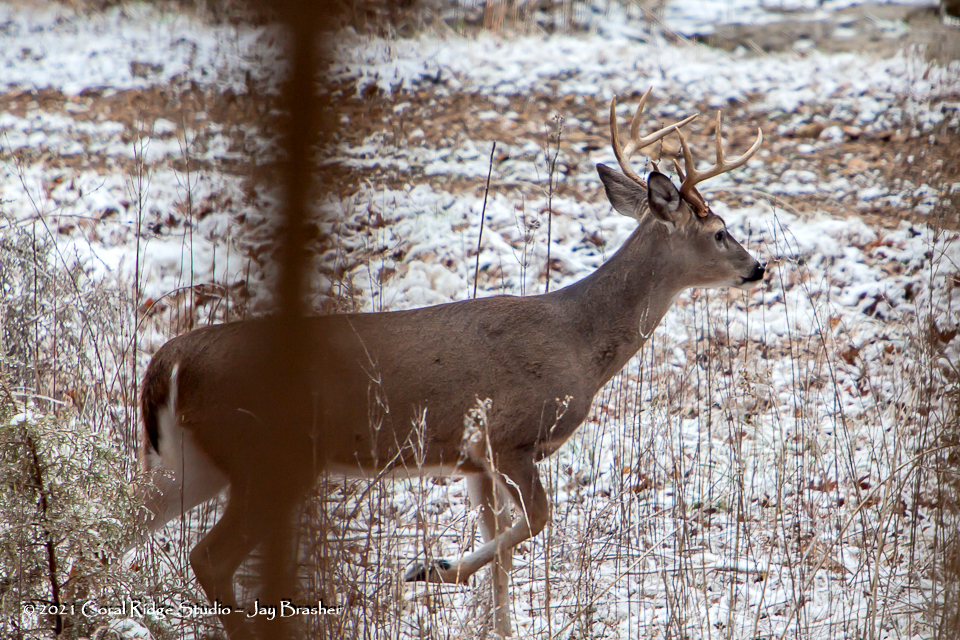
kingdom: Animalia
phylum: Chordata
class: Mammalia
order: Artiodactyla
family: Cervidae
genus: Odocoileus
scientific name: Odocoileus virginianus
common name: White-tailed deer
